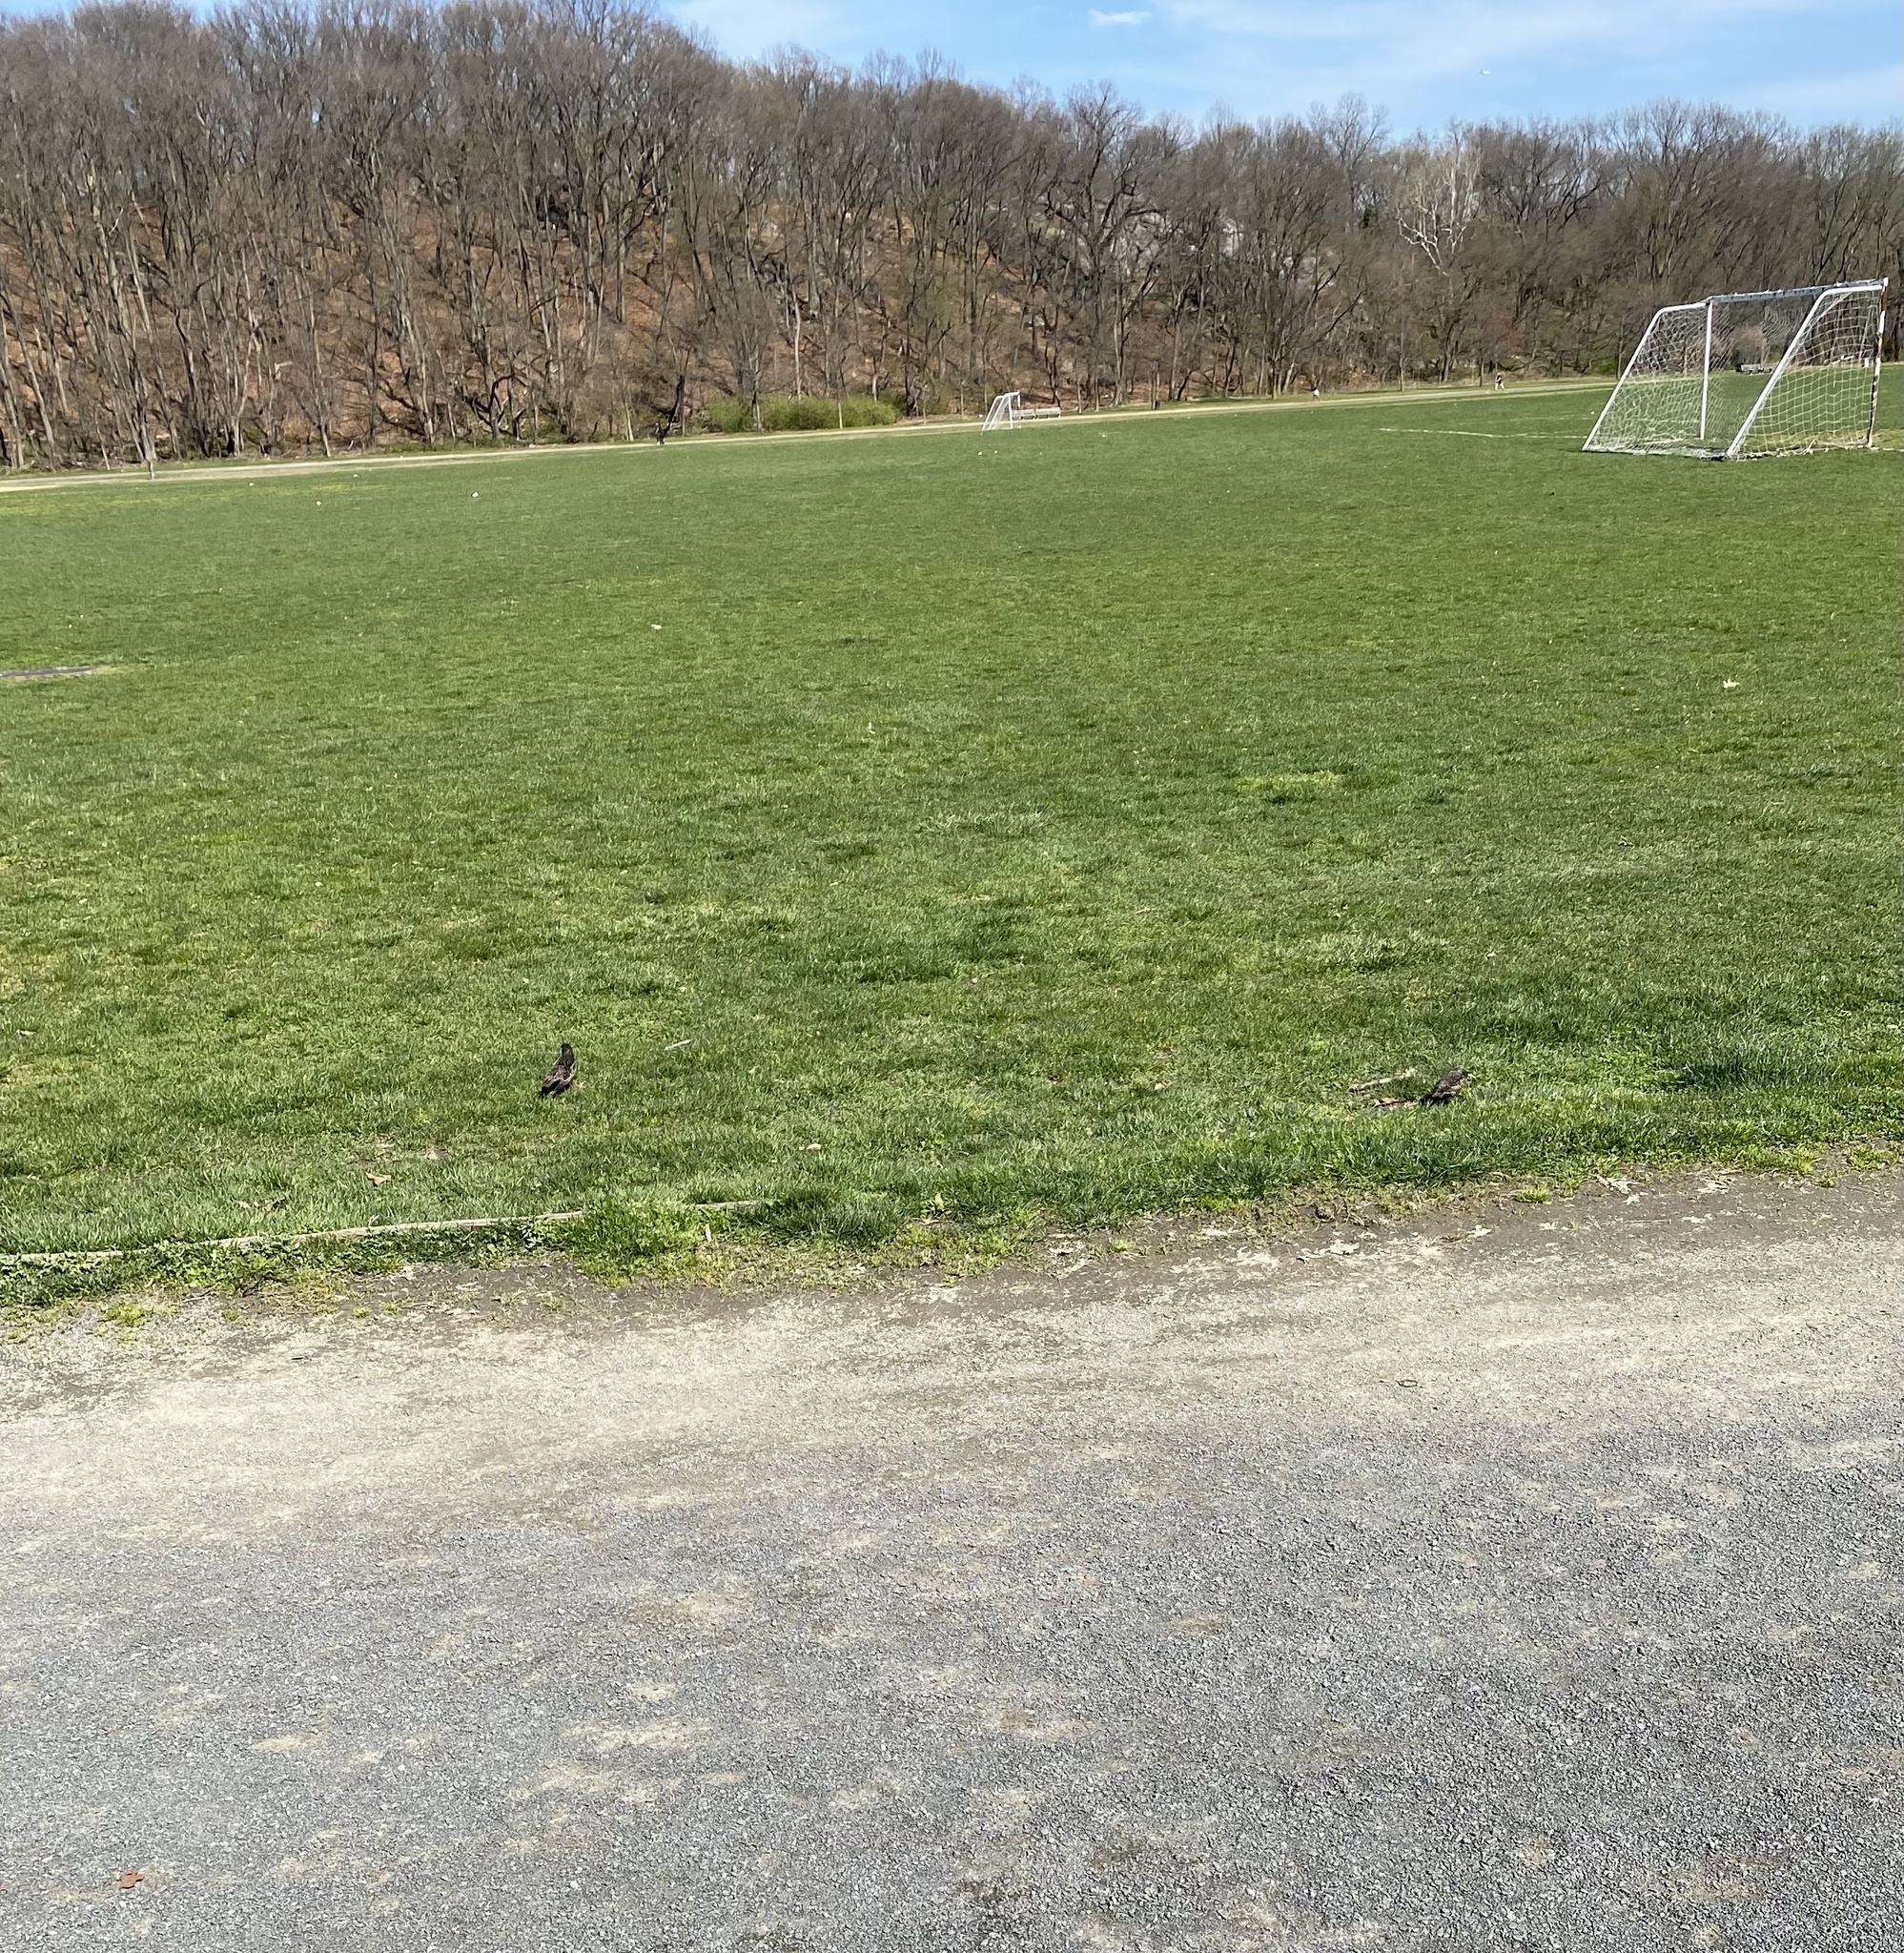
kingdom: Animalia
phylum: Chordata
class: Aves
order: Passeriformes
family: Sturnidae
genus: Sturnus
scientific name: Sturnus vulgaris
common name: Common starling
